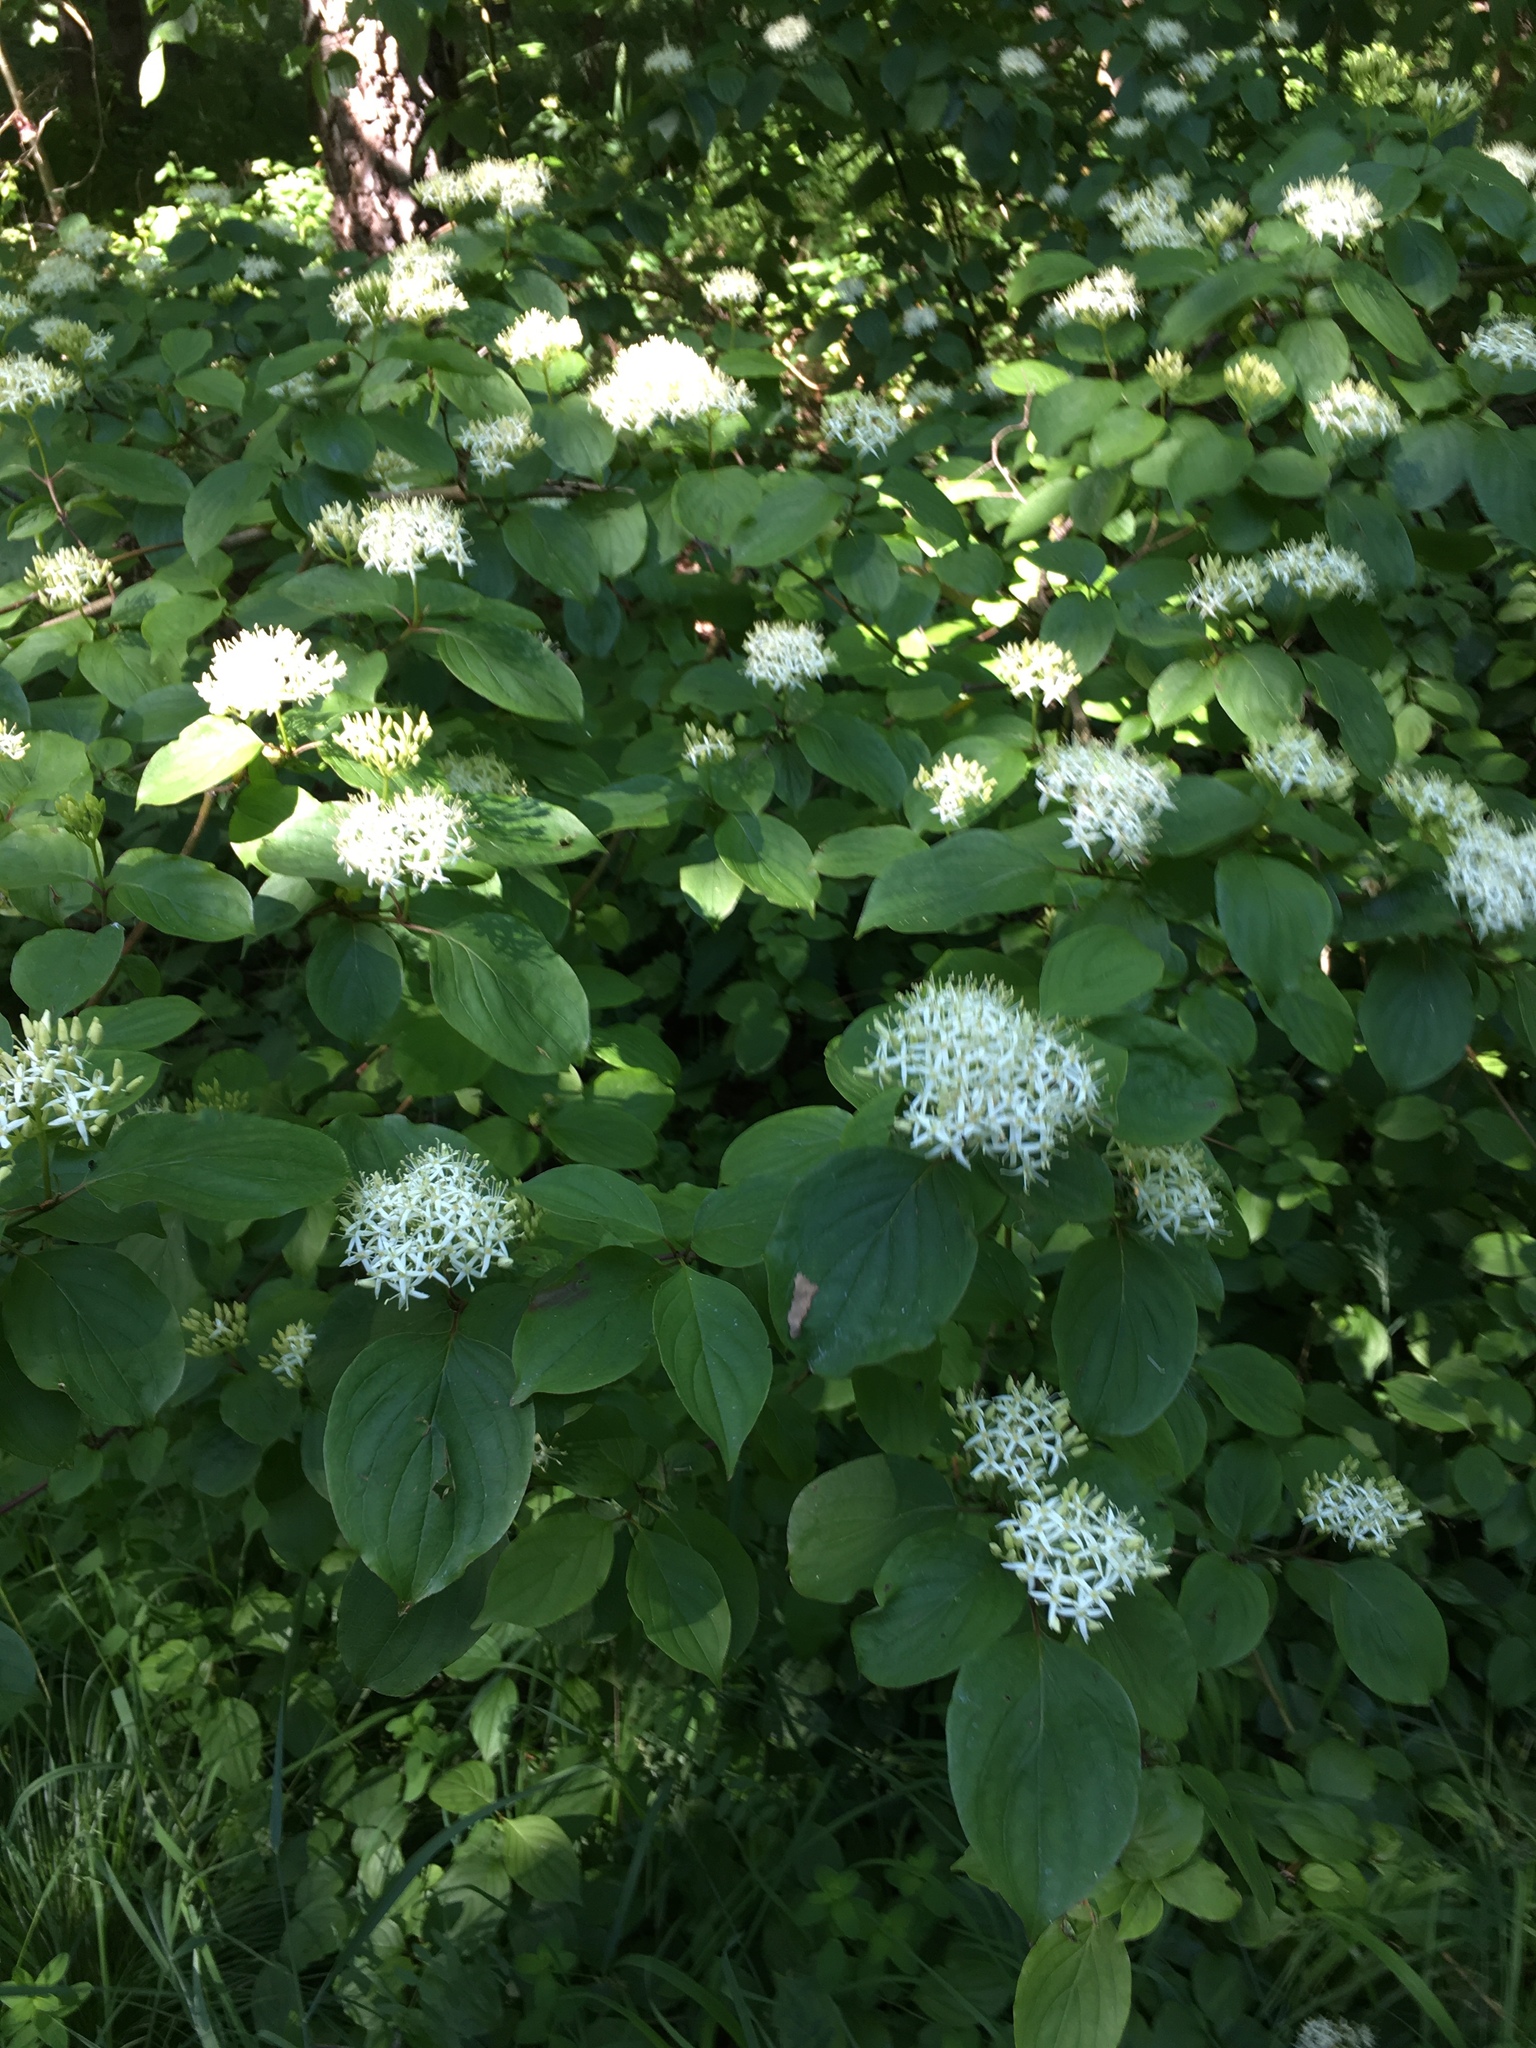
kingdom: Plantae
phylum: Tracheophyta
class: Magnoliopsida
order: Cornales
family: Cornaceae
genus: Cornus
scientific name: Cornus sanguinea
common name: Dogwood
